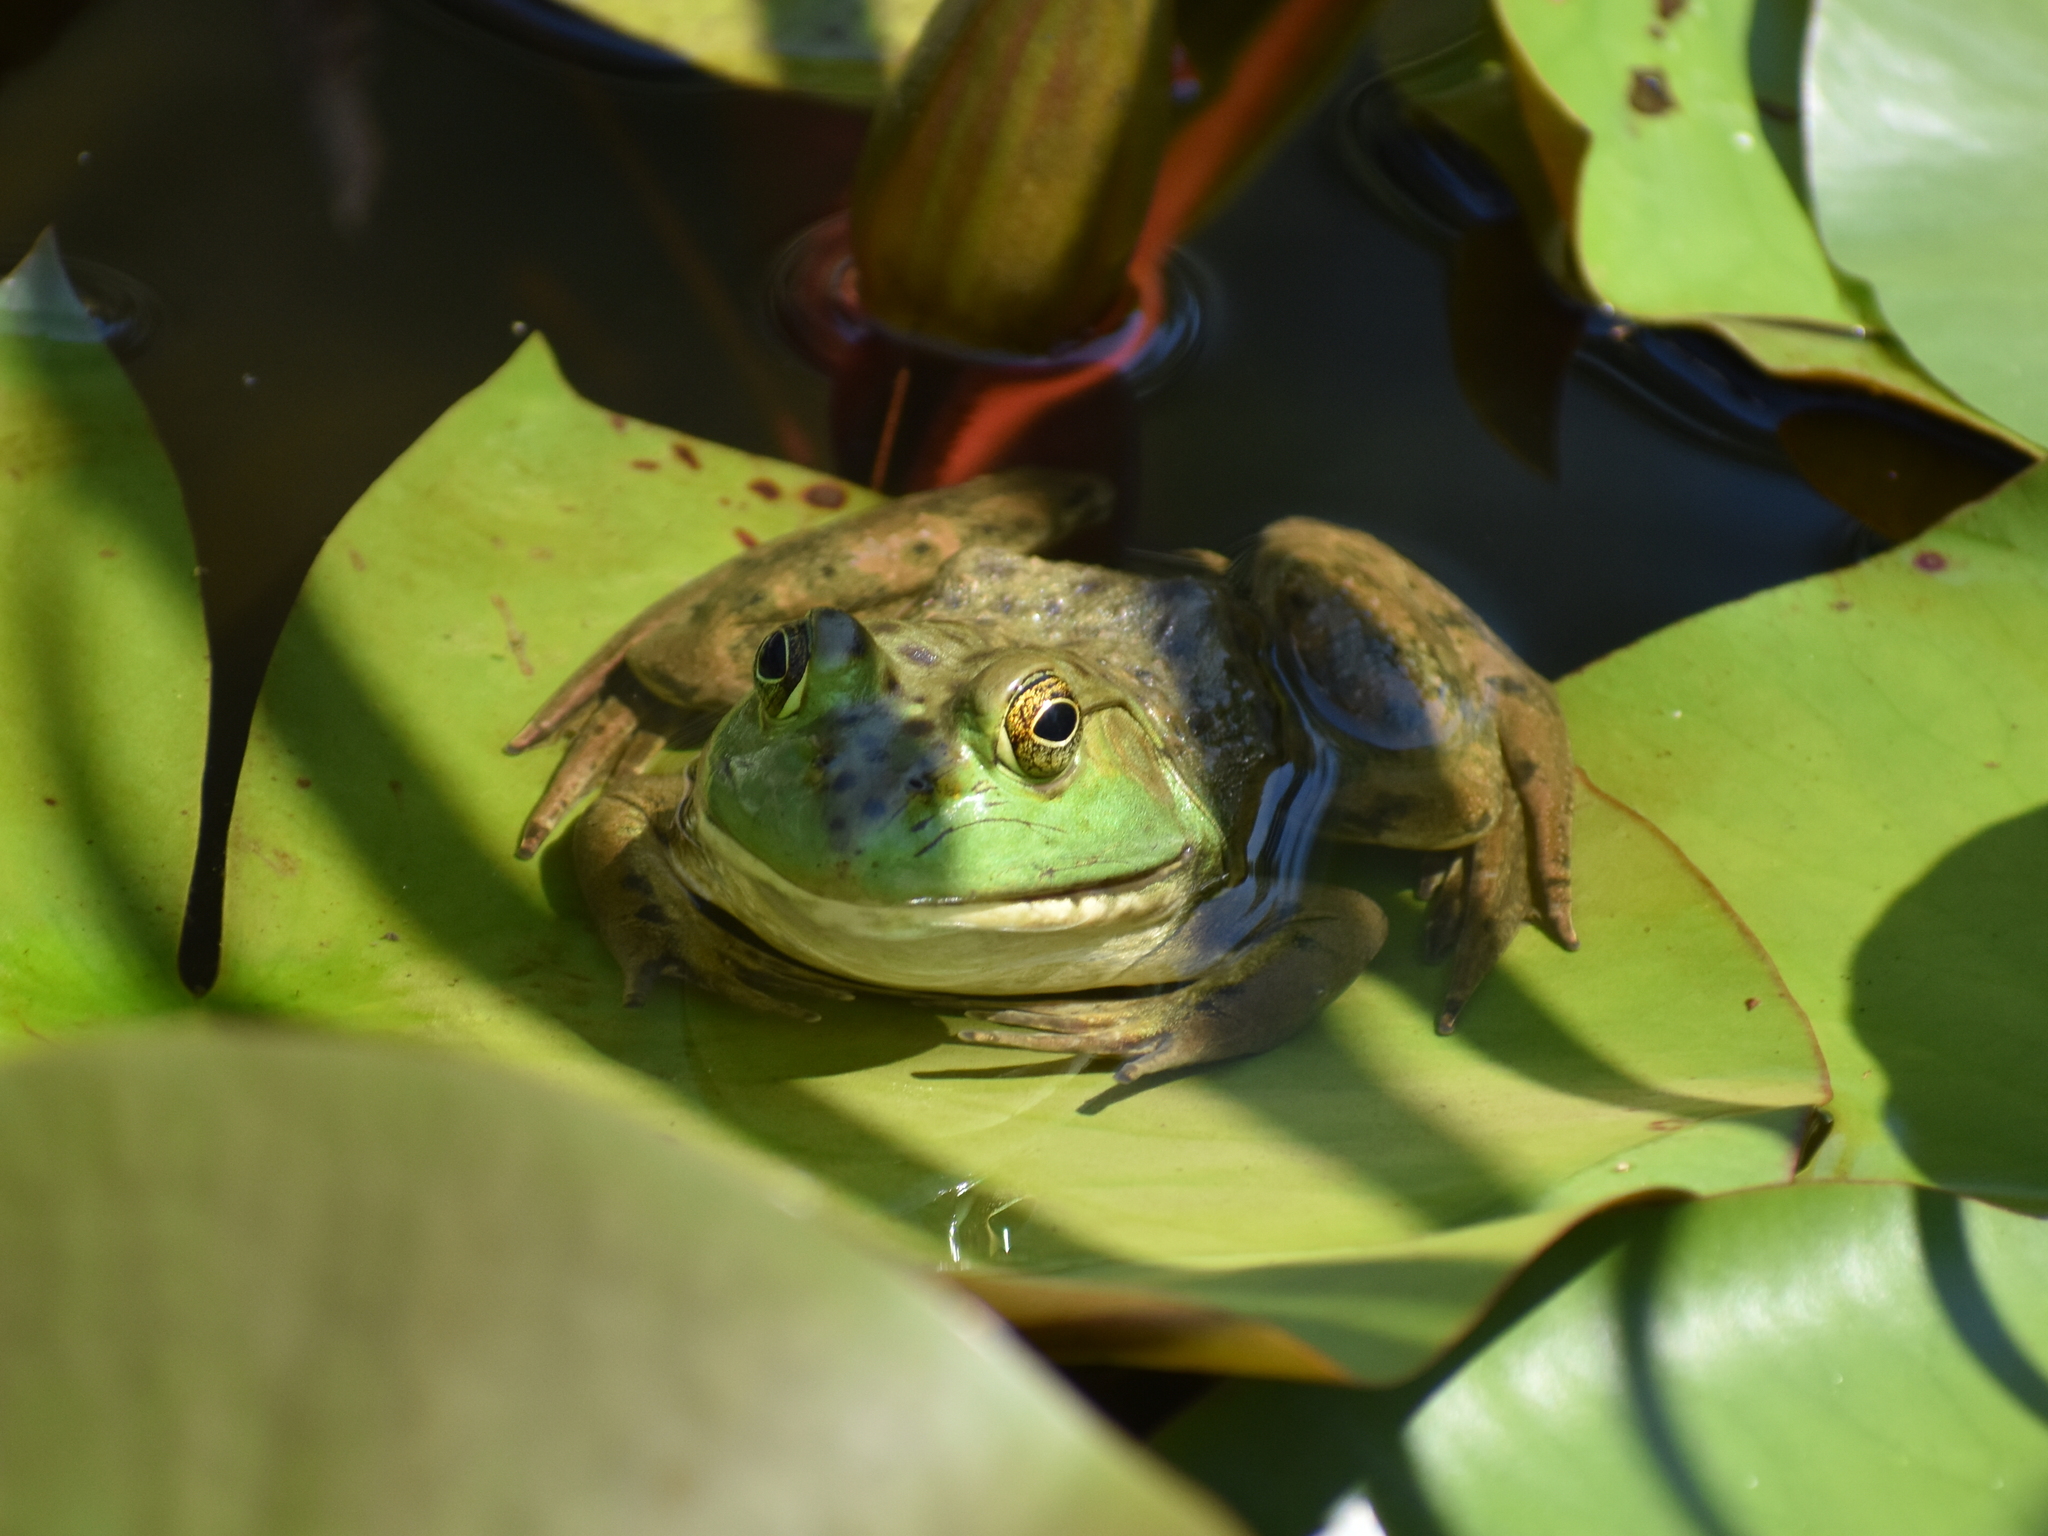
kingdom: Animalia
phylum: Chordata
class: Amphibia
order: Anura
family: Ranidae
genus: Lithobates
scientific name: Lithobates catesbeianus
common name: American bullfrog
